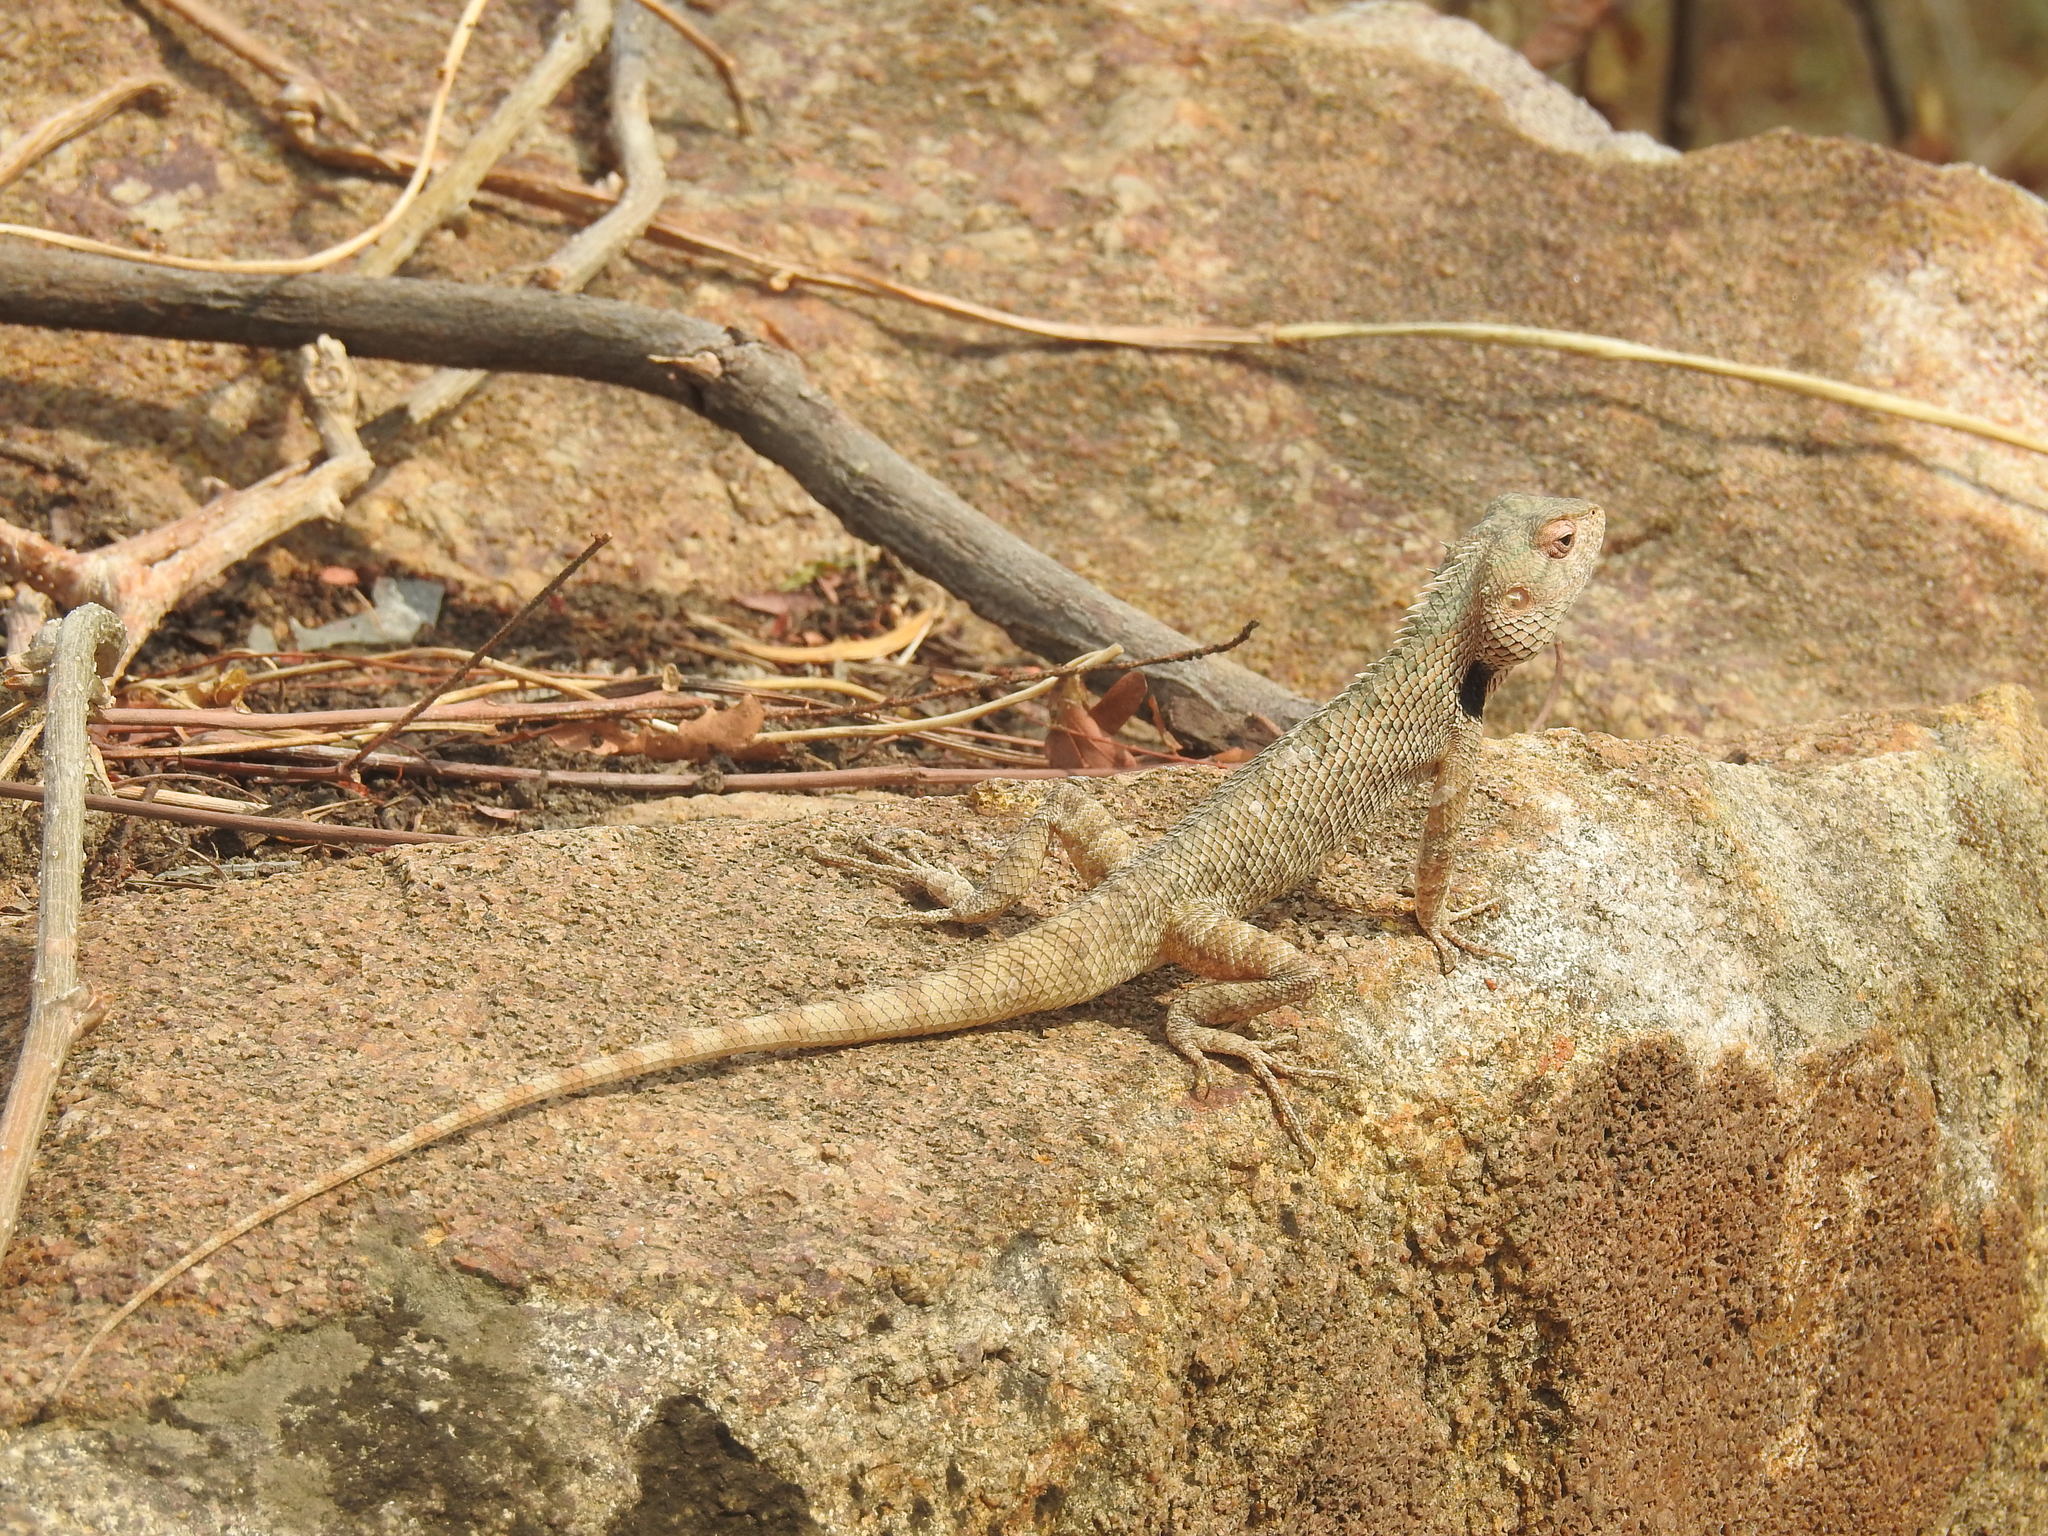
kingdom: Animalia
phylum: Chordata
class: Squamata
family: Agamidae
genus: Calotes
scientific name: Calotes versicolor
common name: Oriental garden lizard
